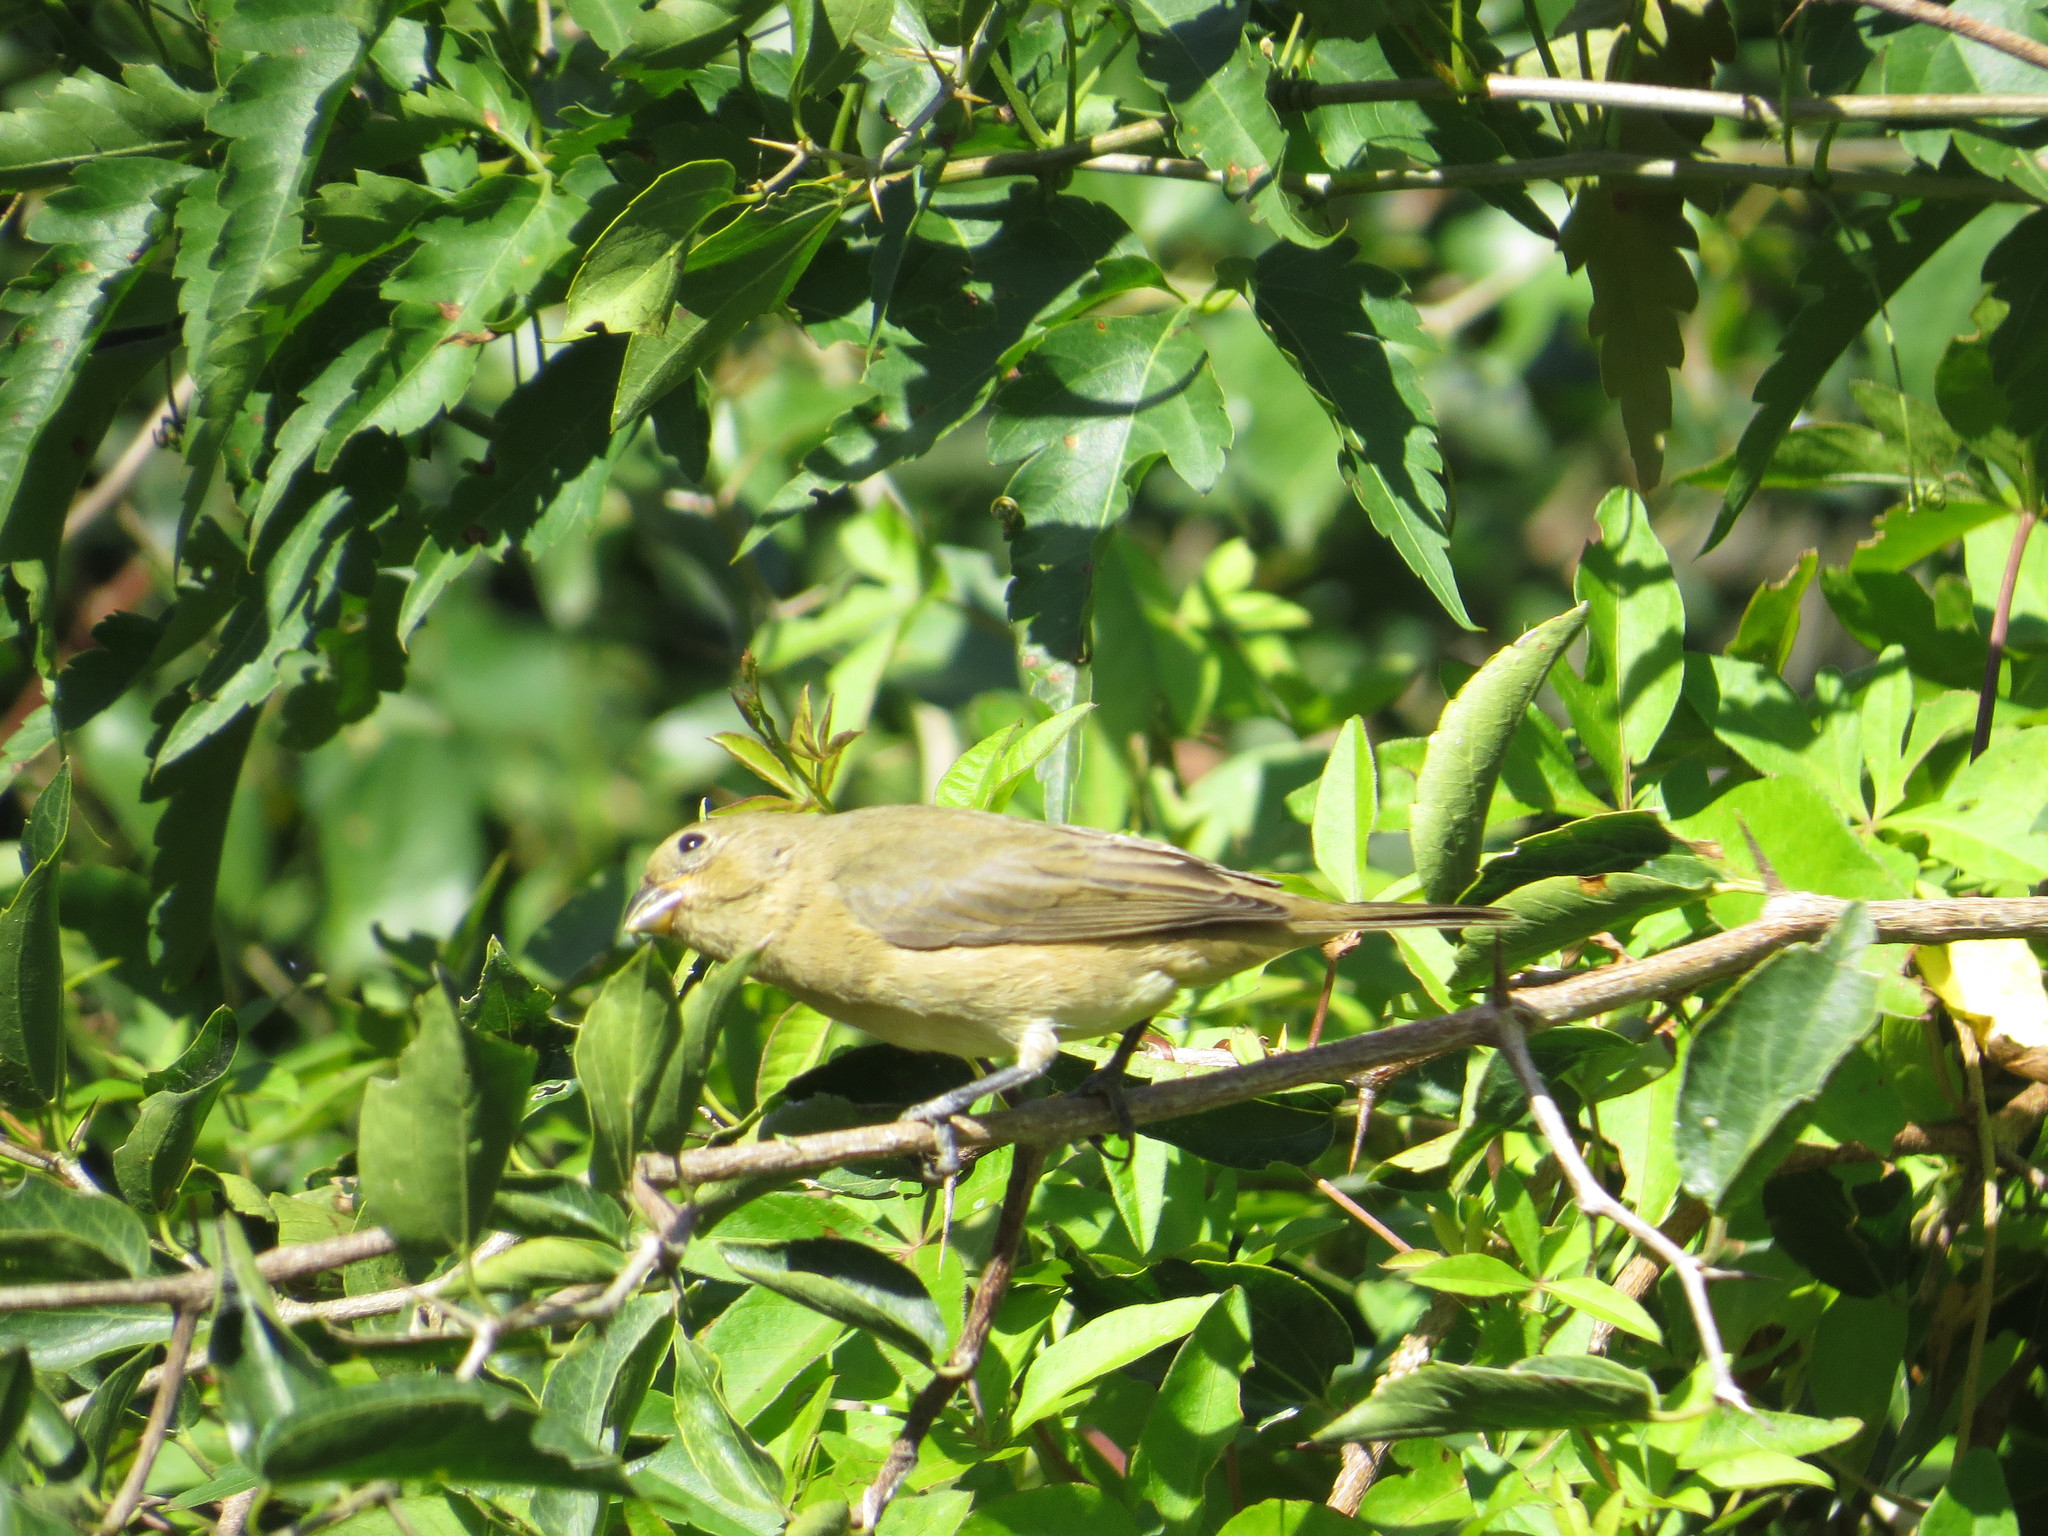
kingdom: Animalia
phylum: Chordata
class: Aves
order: Passeriformes
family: Thraupidae
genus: Sporophila
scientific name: Sporophila caerulescens
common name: Double-collared seedeater
